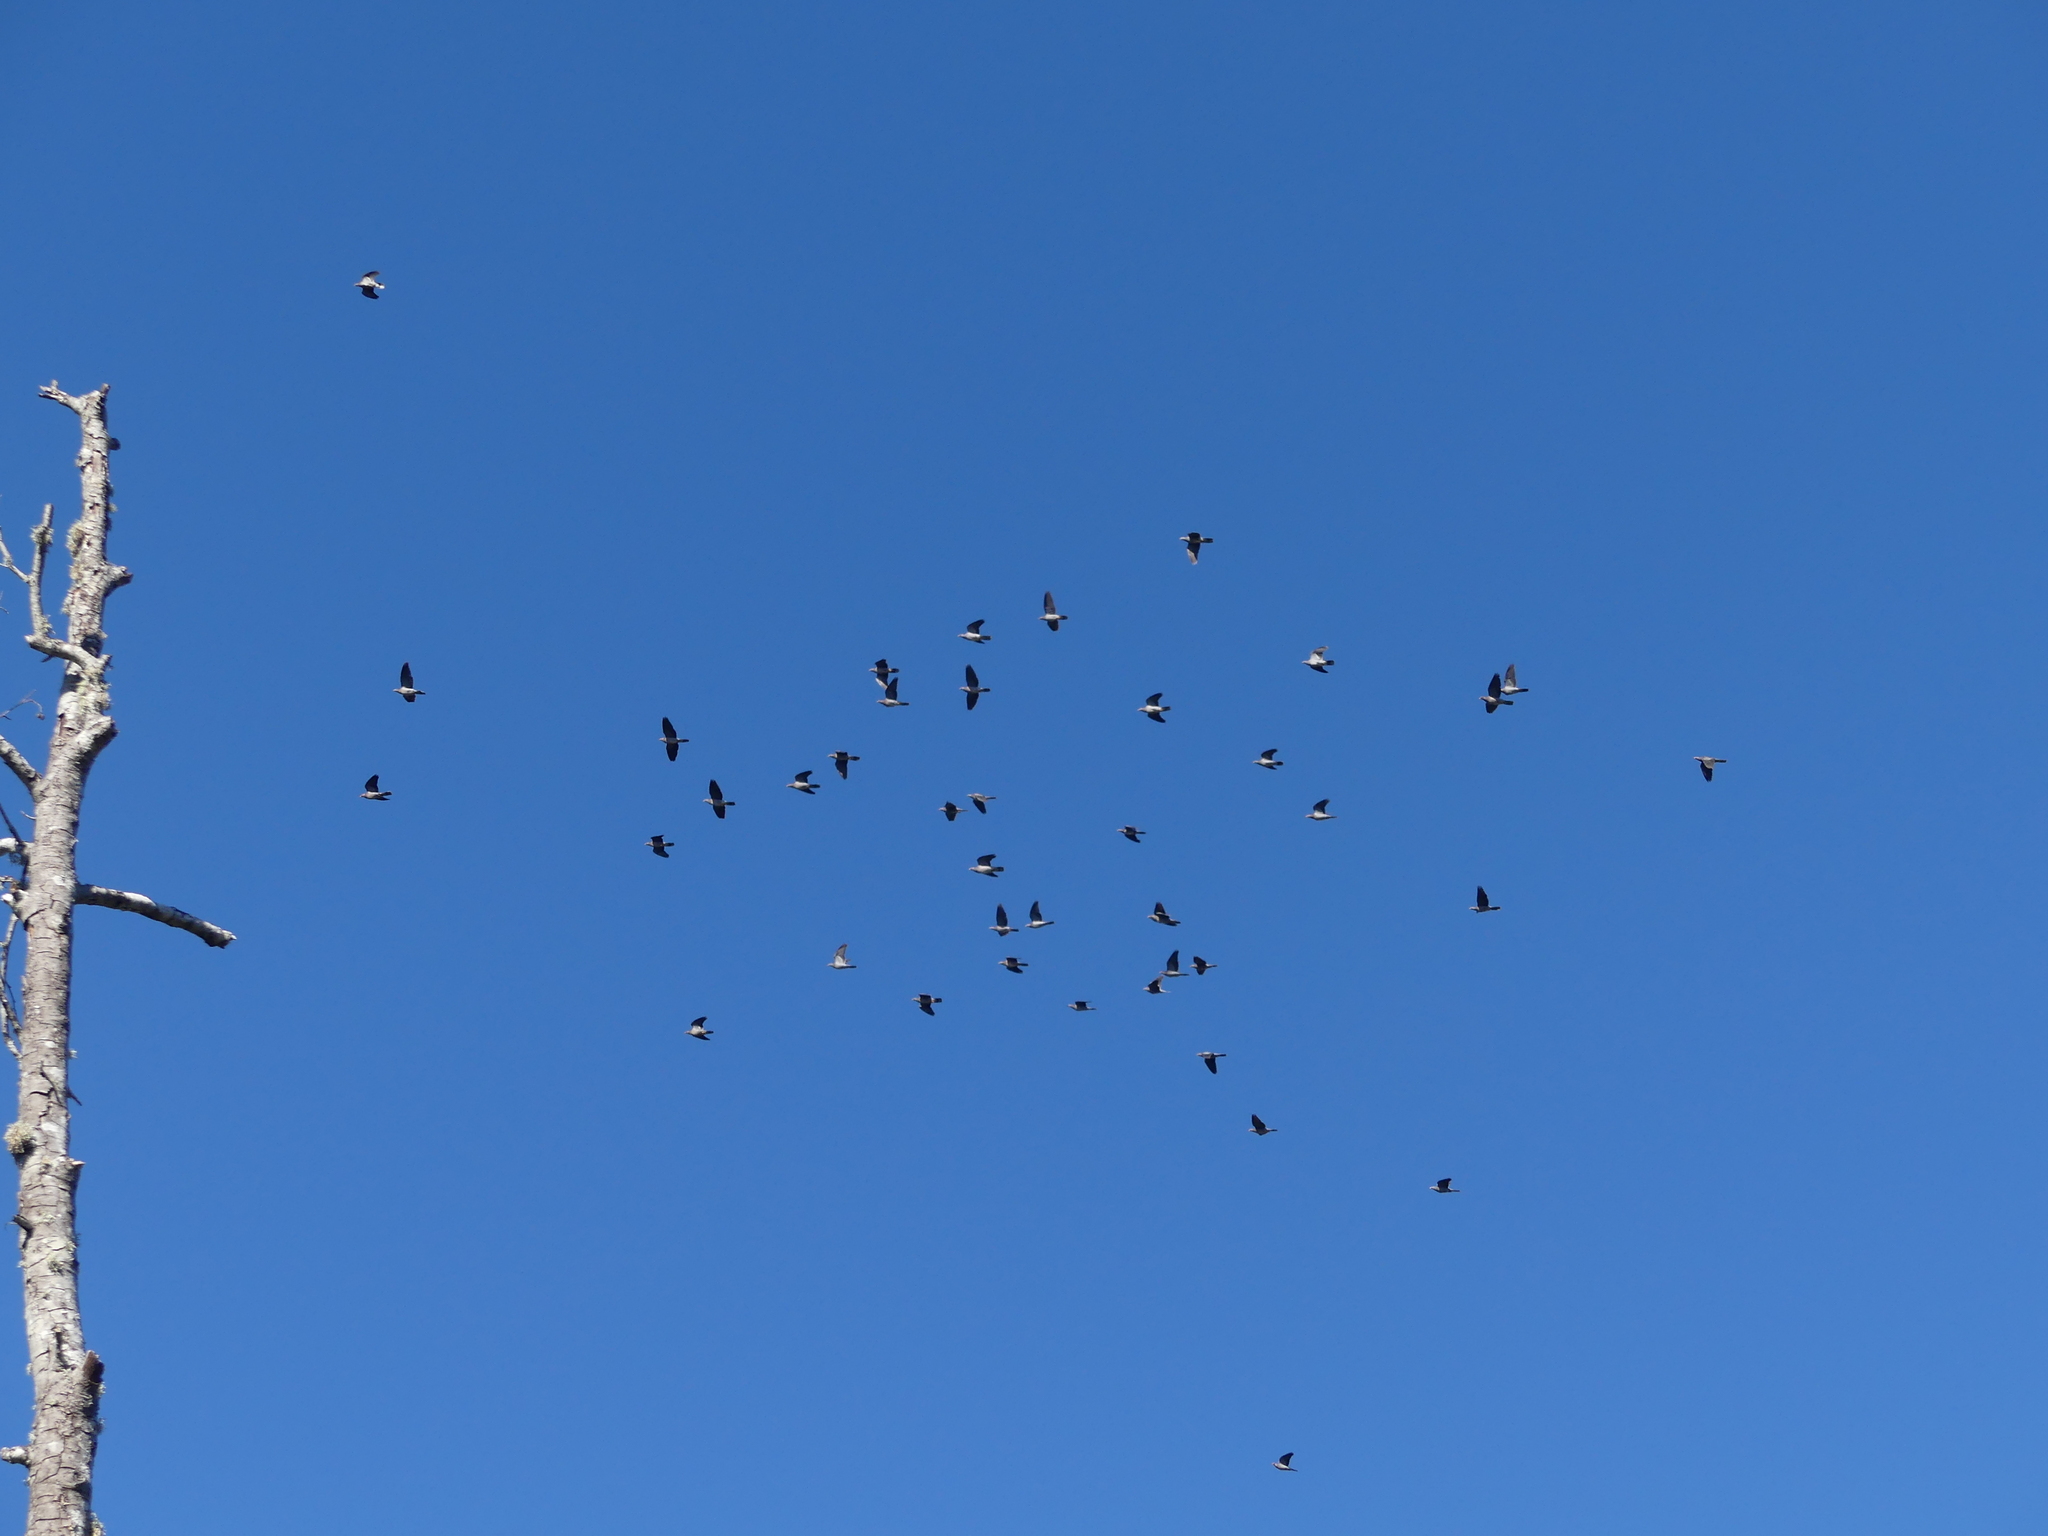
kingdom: Animalia
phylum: Chordata
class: Aves
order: Columbiformes
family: Columbidae
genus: Patagioenas
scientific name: Patagioenas fasciata
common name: Band-tailed pigeon
